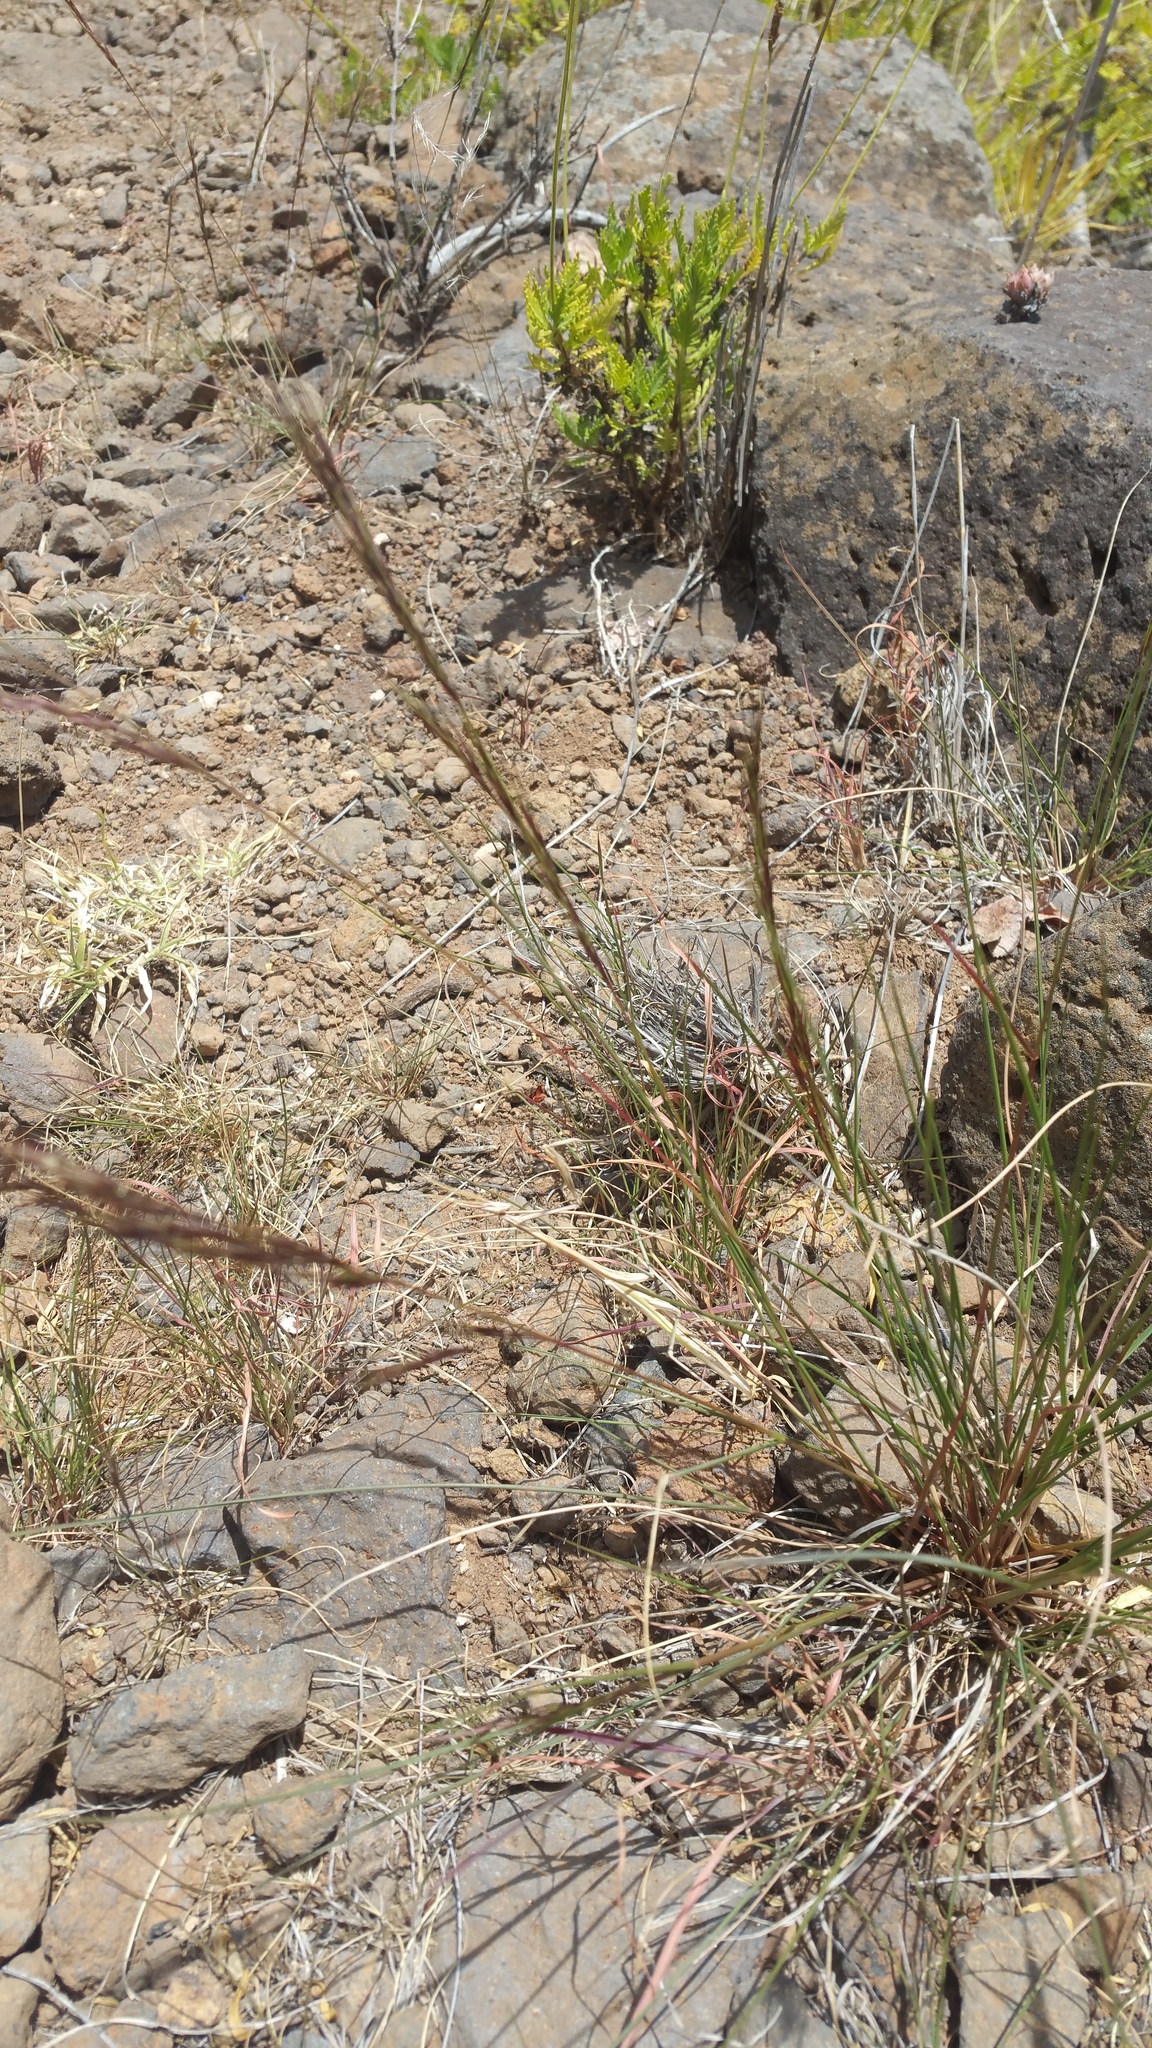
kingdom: Animalia
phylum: Arthropoda
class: Insecta
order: Mantodea
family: Empusidae
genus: Hypsicorypha
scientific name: Hypsicorypha gracilis
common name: Sublime conehead mantis
